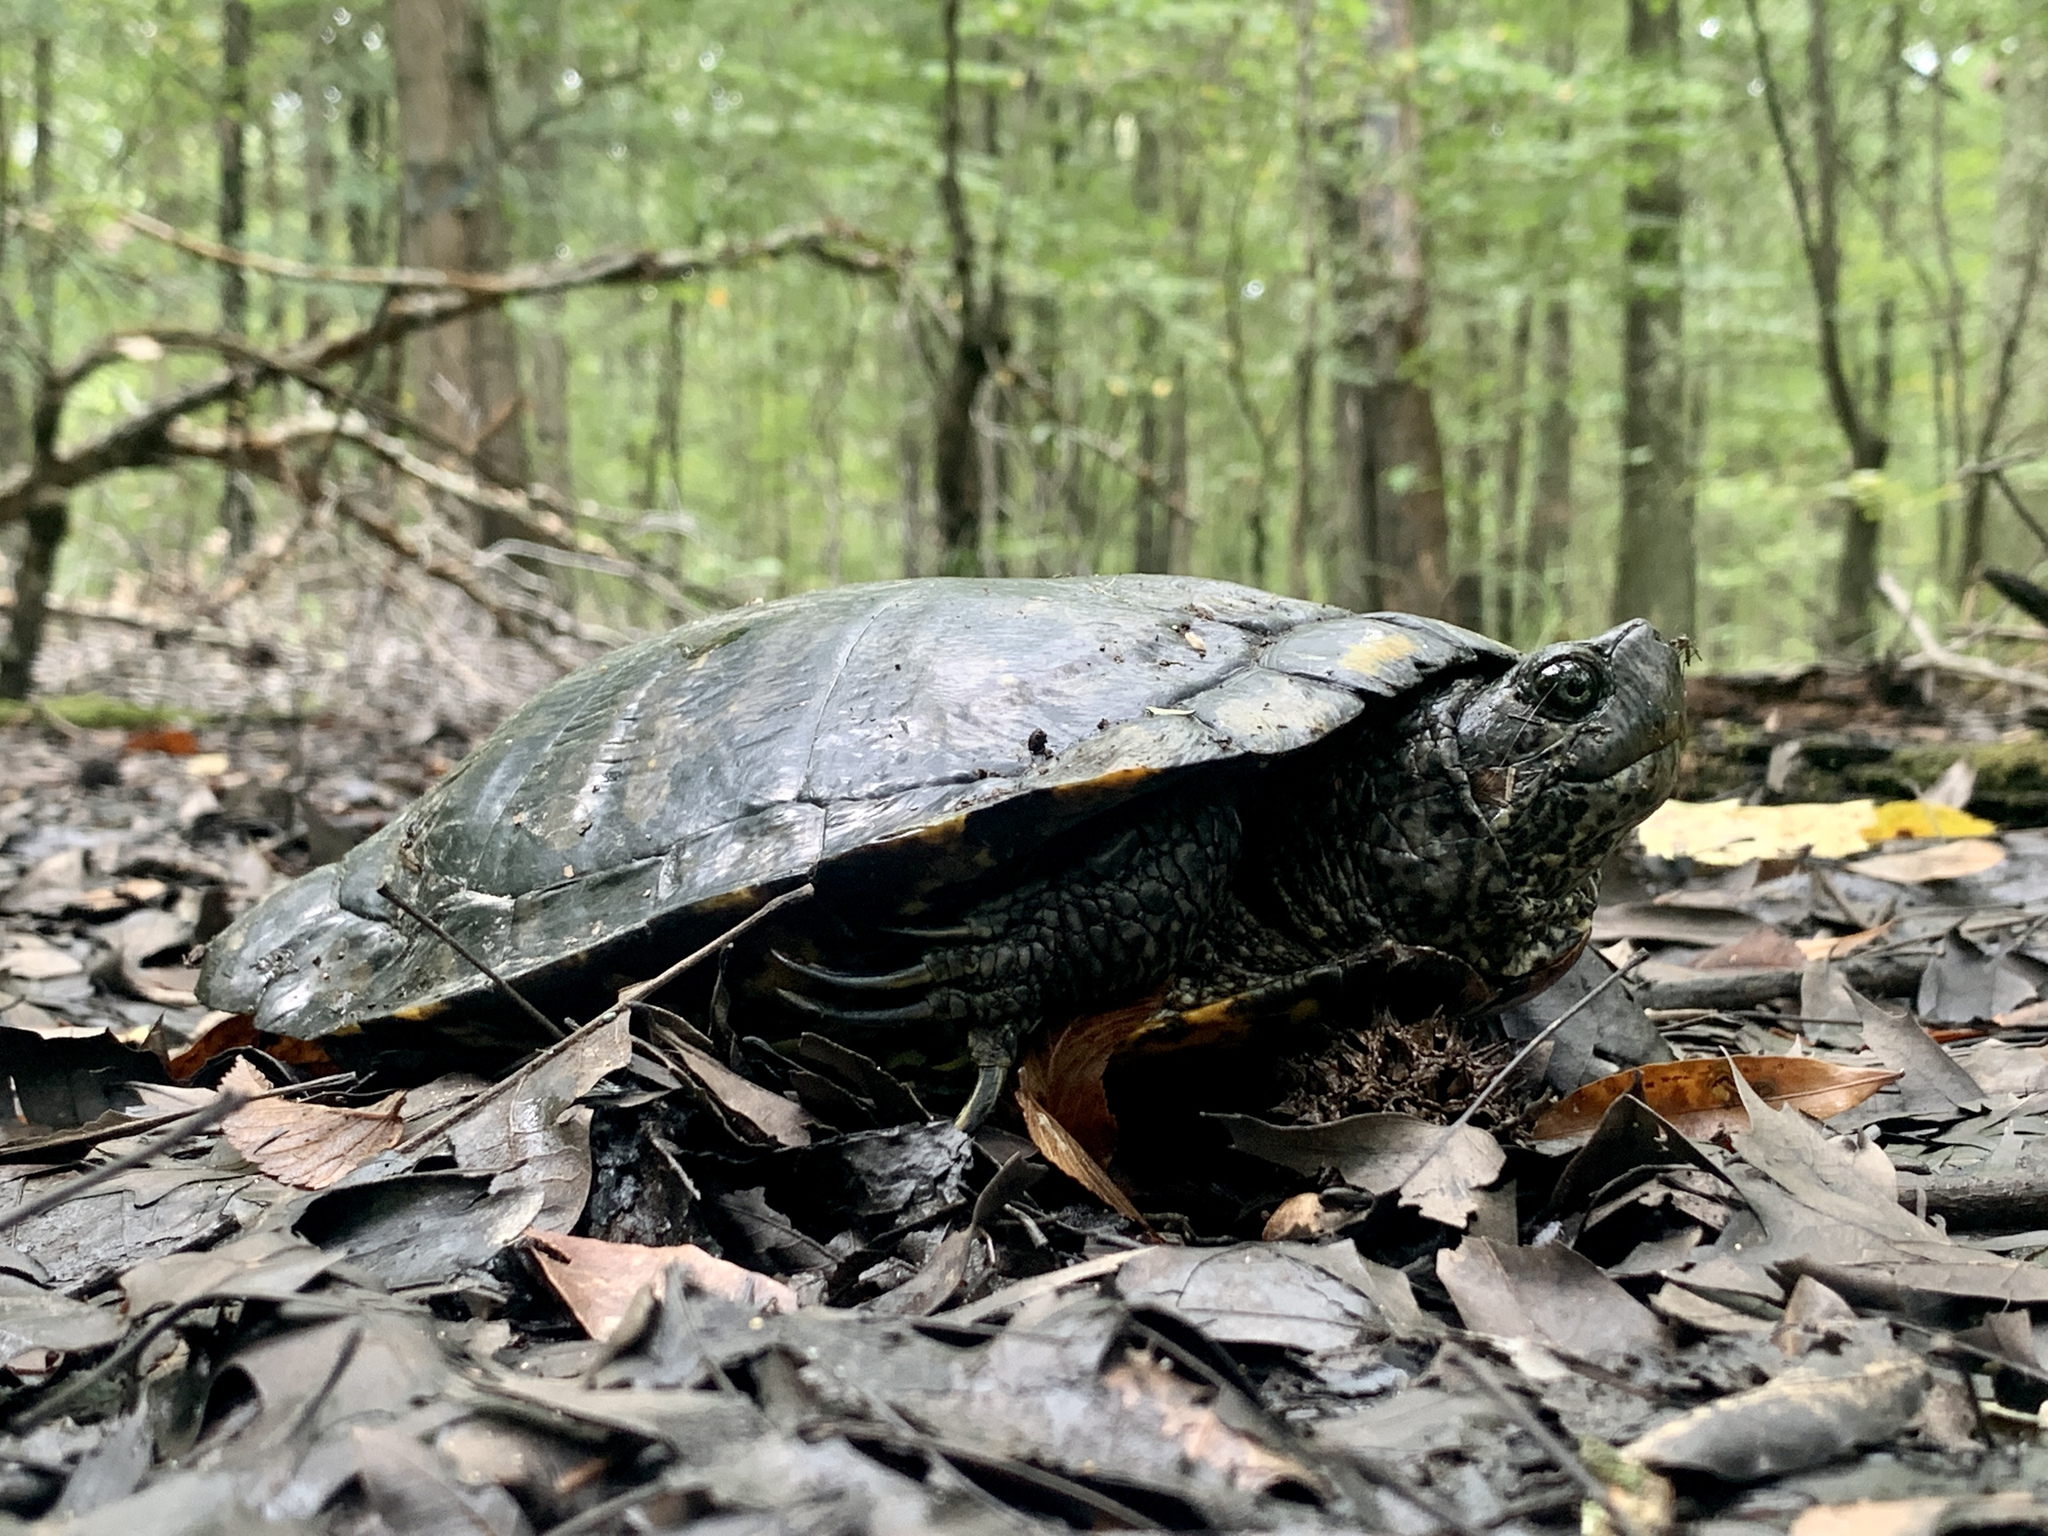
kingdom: Animalia
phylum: Chordata
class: Testudines
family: Emydidae
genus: Trachemys
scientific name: Trachemys scripta
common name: Slider
